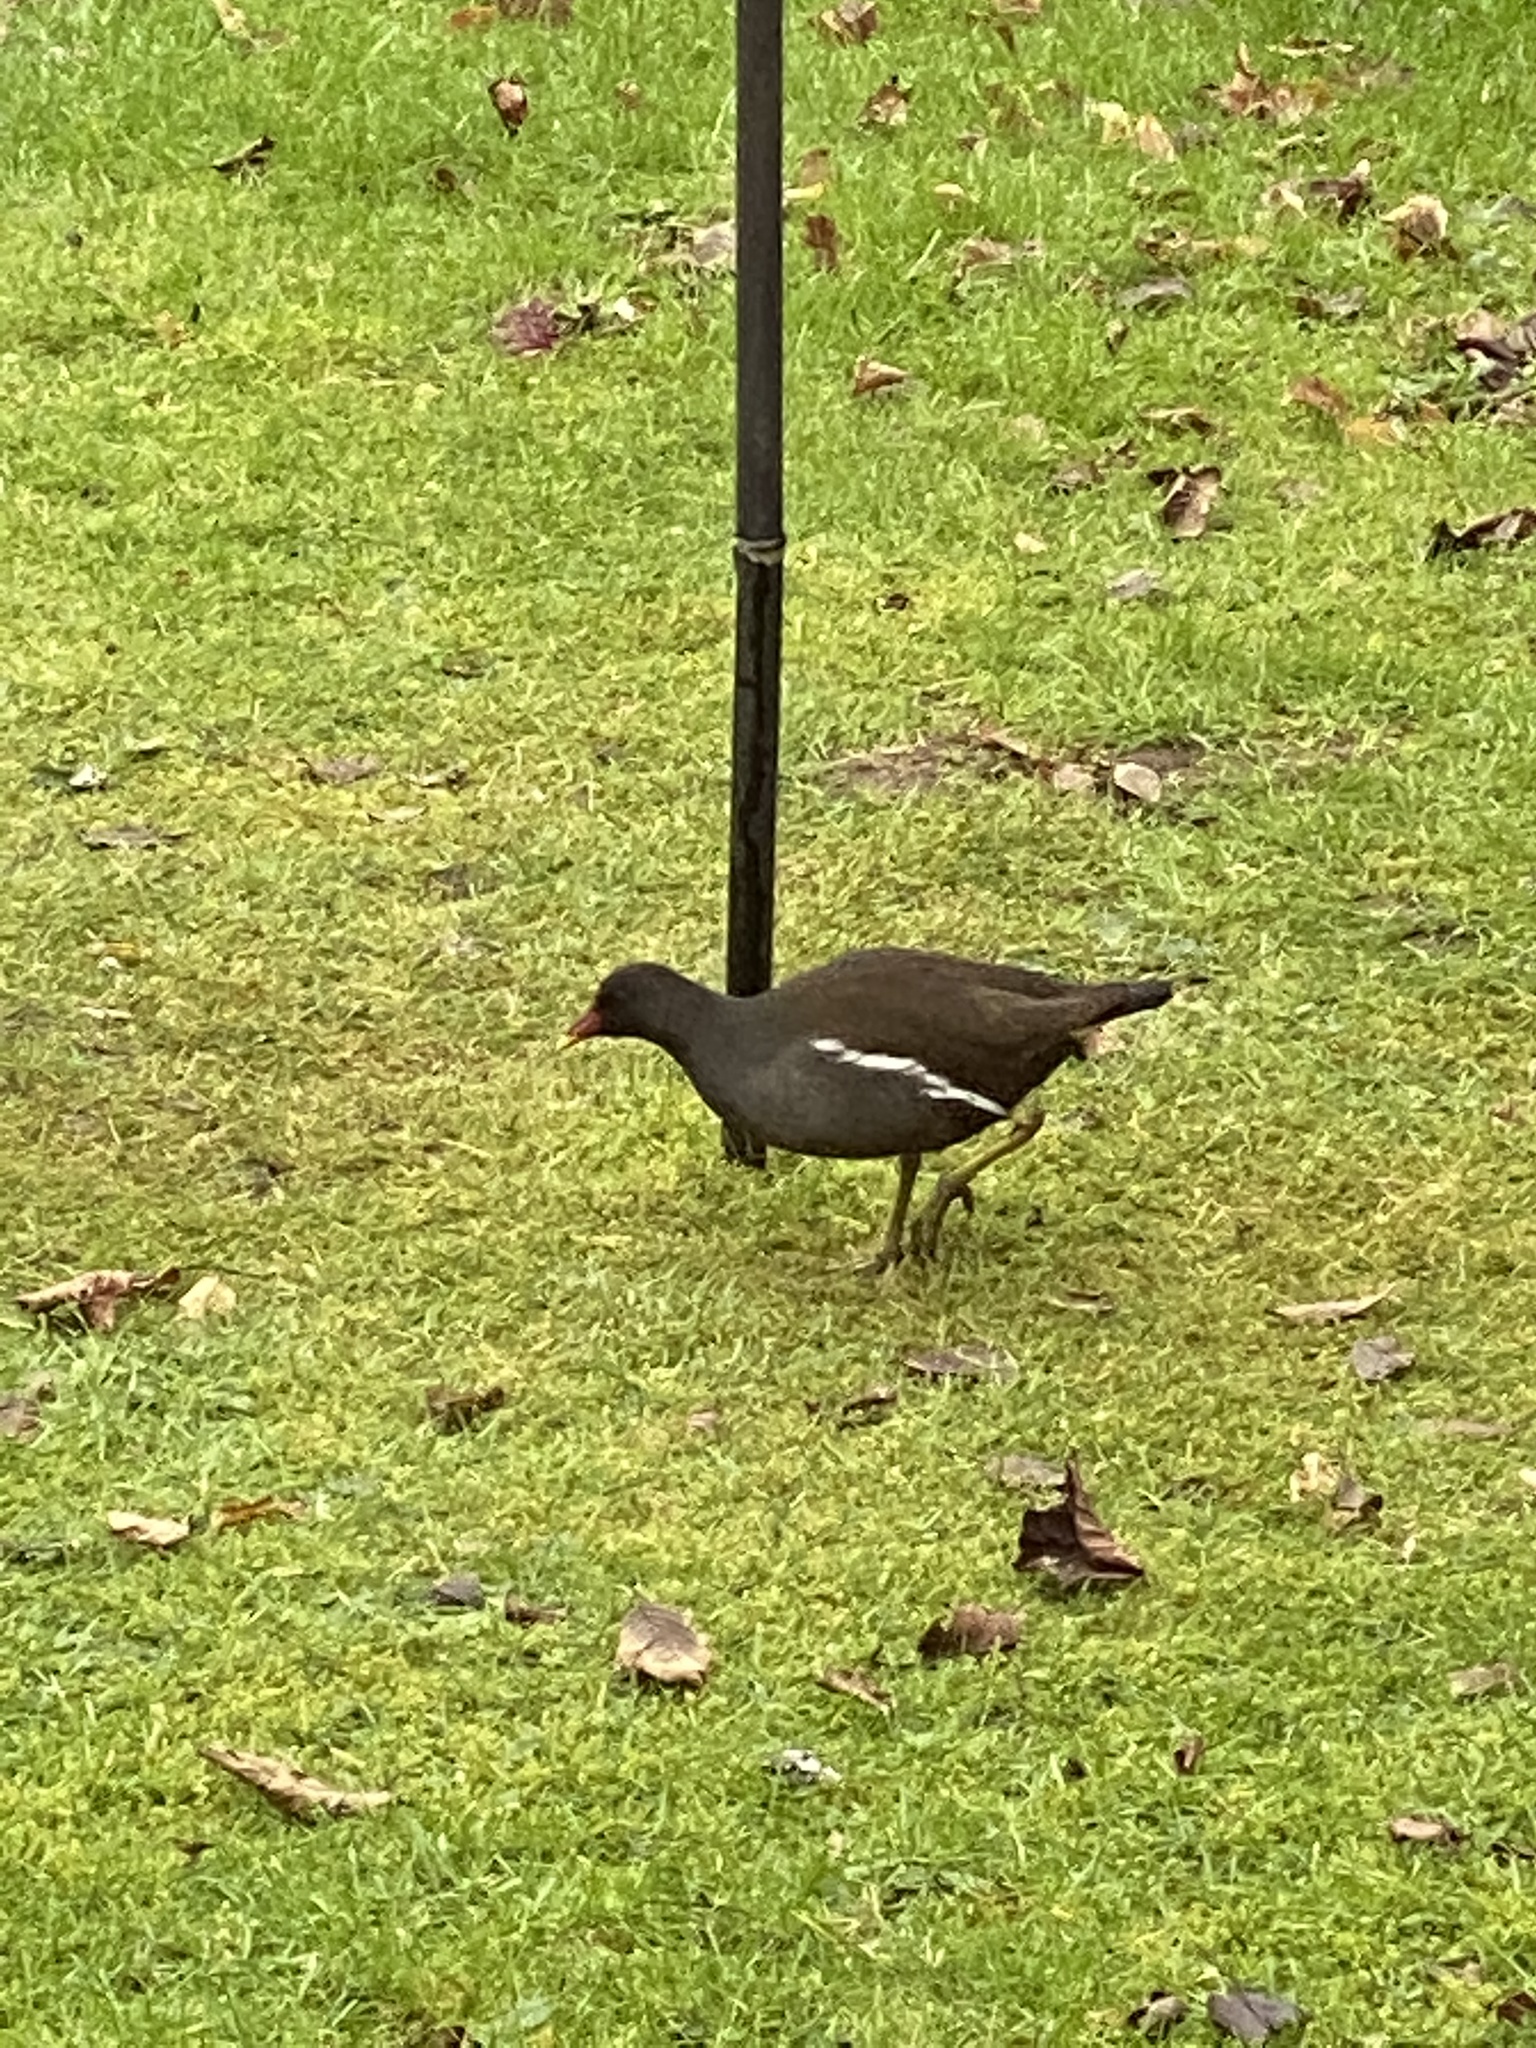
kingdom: Animalia
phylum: Chordata
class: Aves
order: Gruiformes
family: Rallidae
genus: Gallinula
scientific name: Gallinula chloropus
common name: Common moorhen
